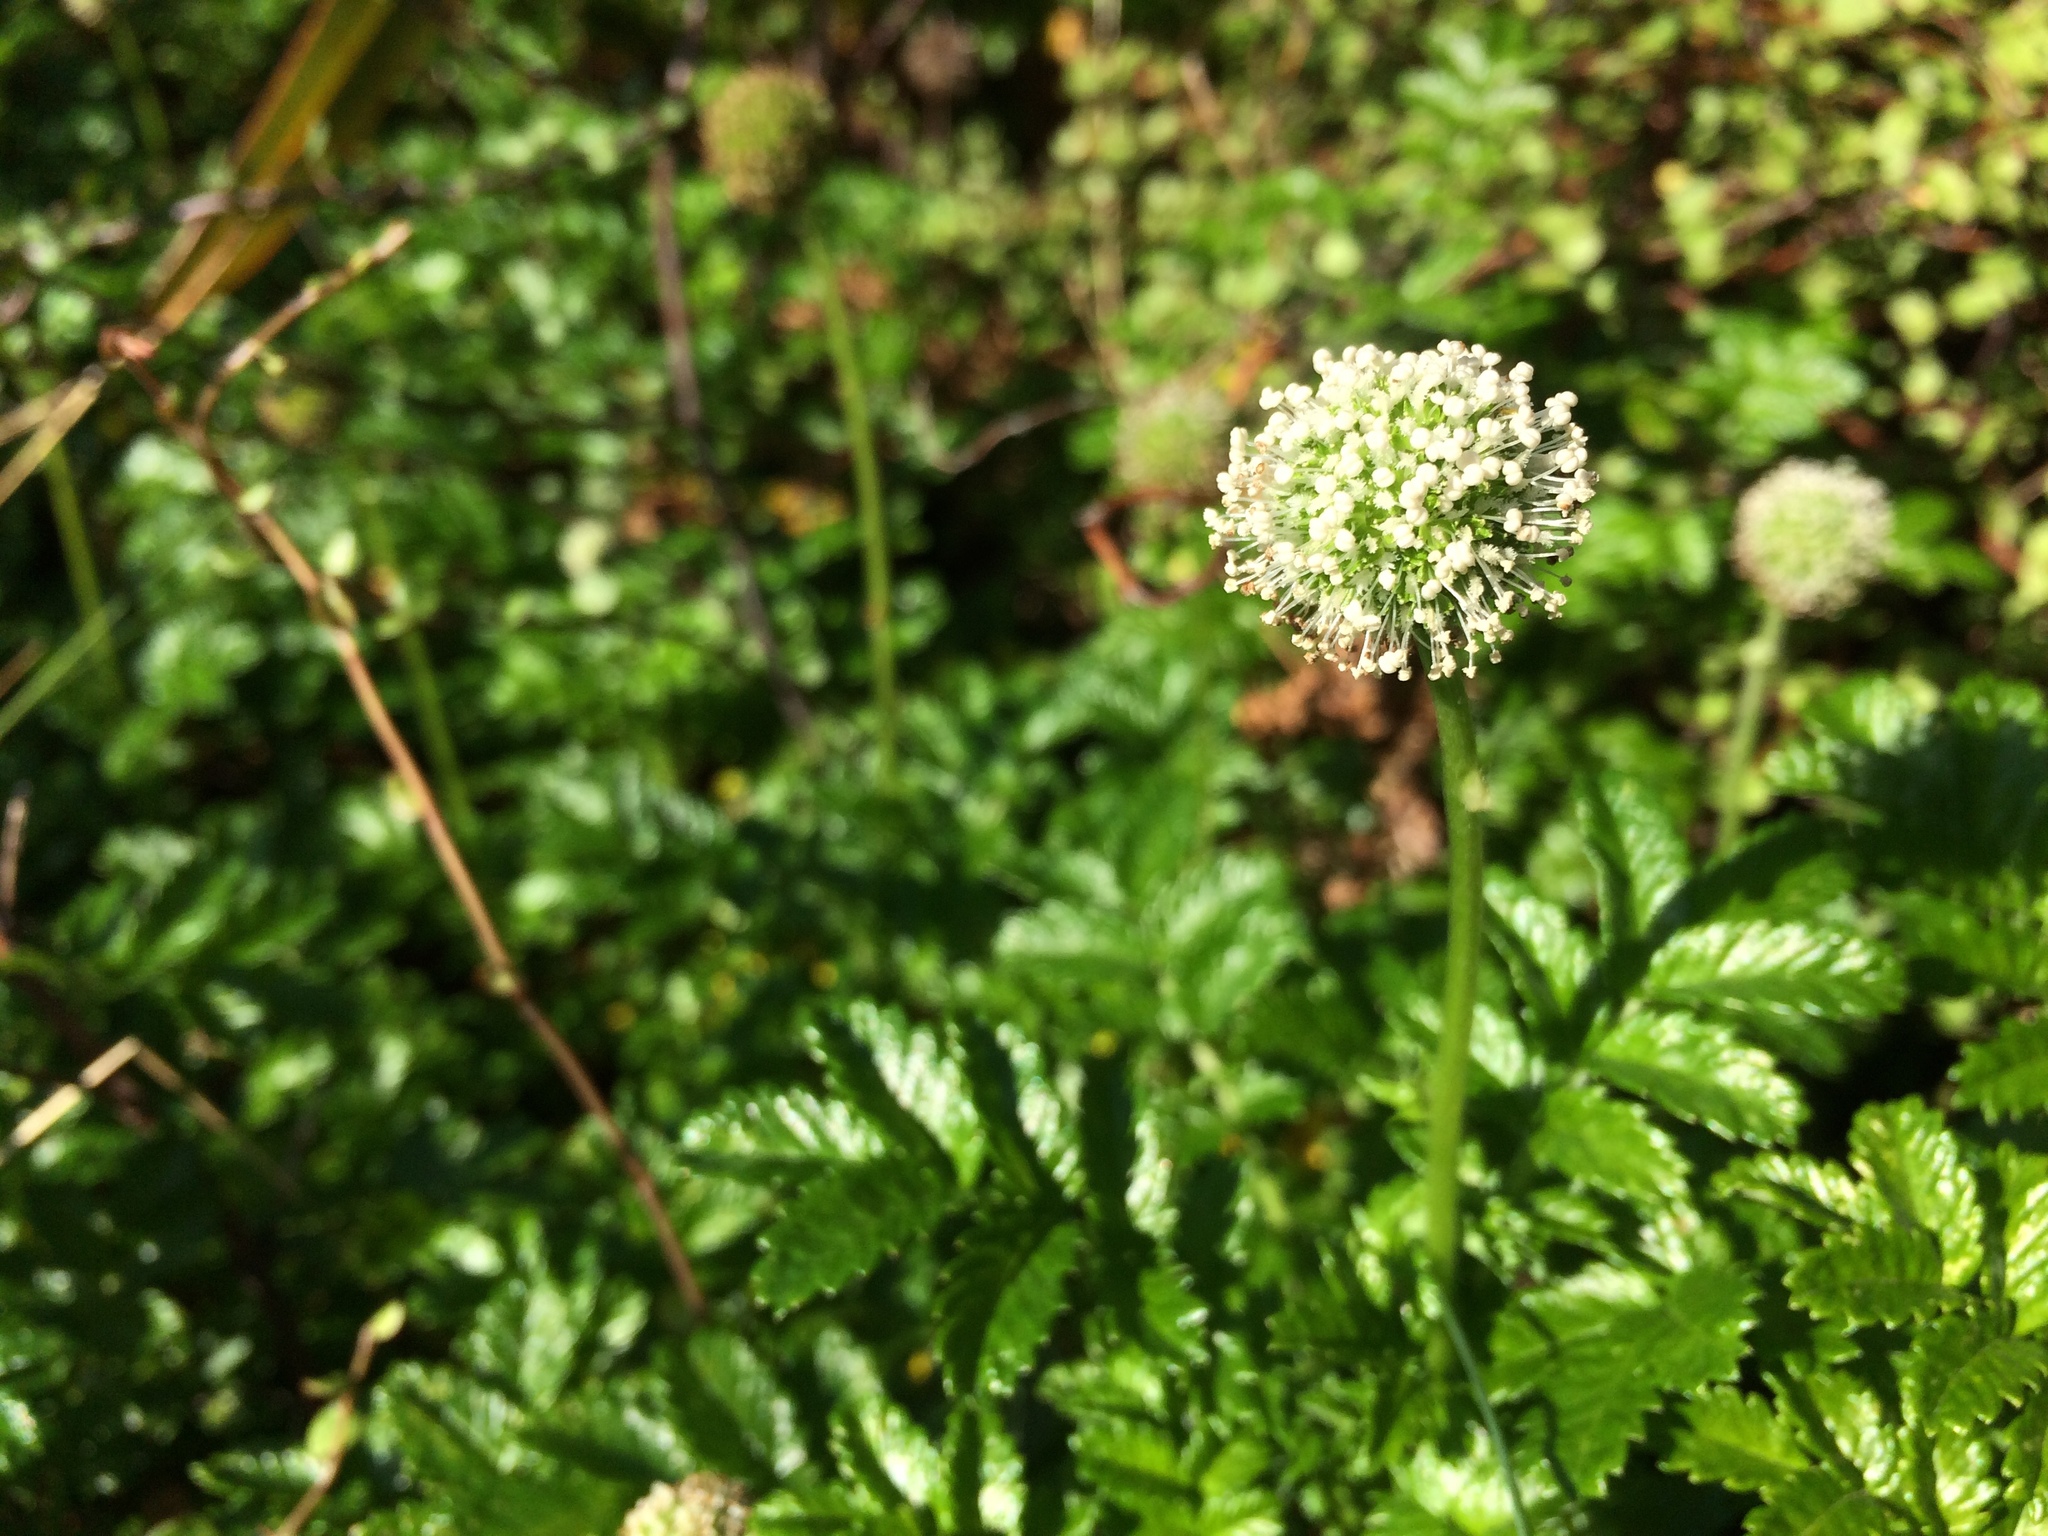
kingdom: Plantae
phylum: Tracheophyta
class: Magnoliopsida
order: Rosales
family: Rosaceae
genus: Acaena
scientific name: Acaena pallida
